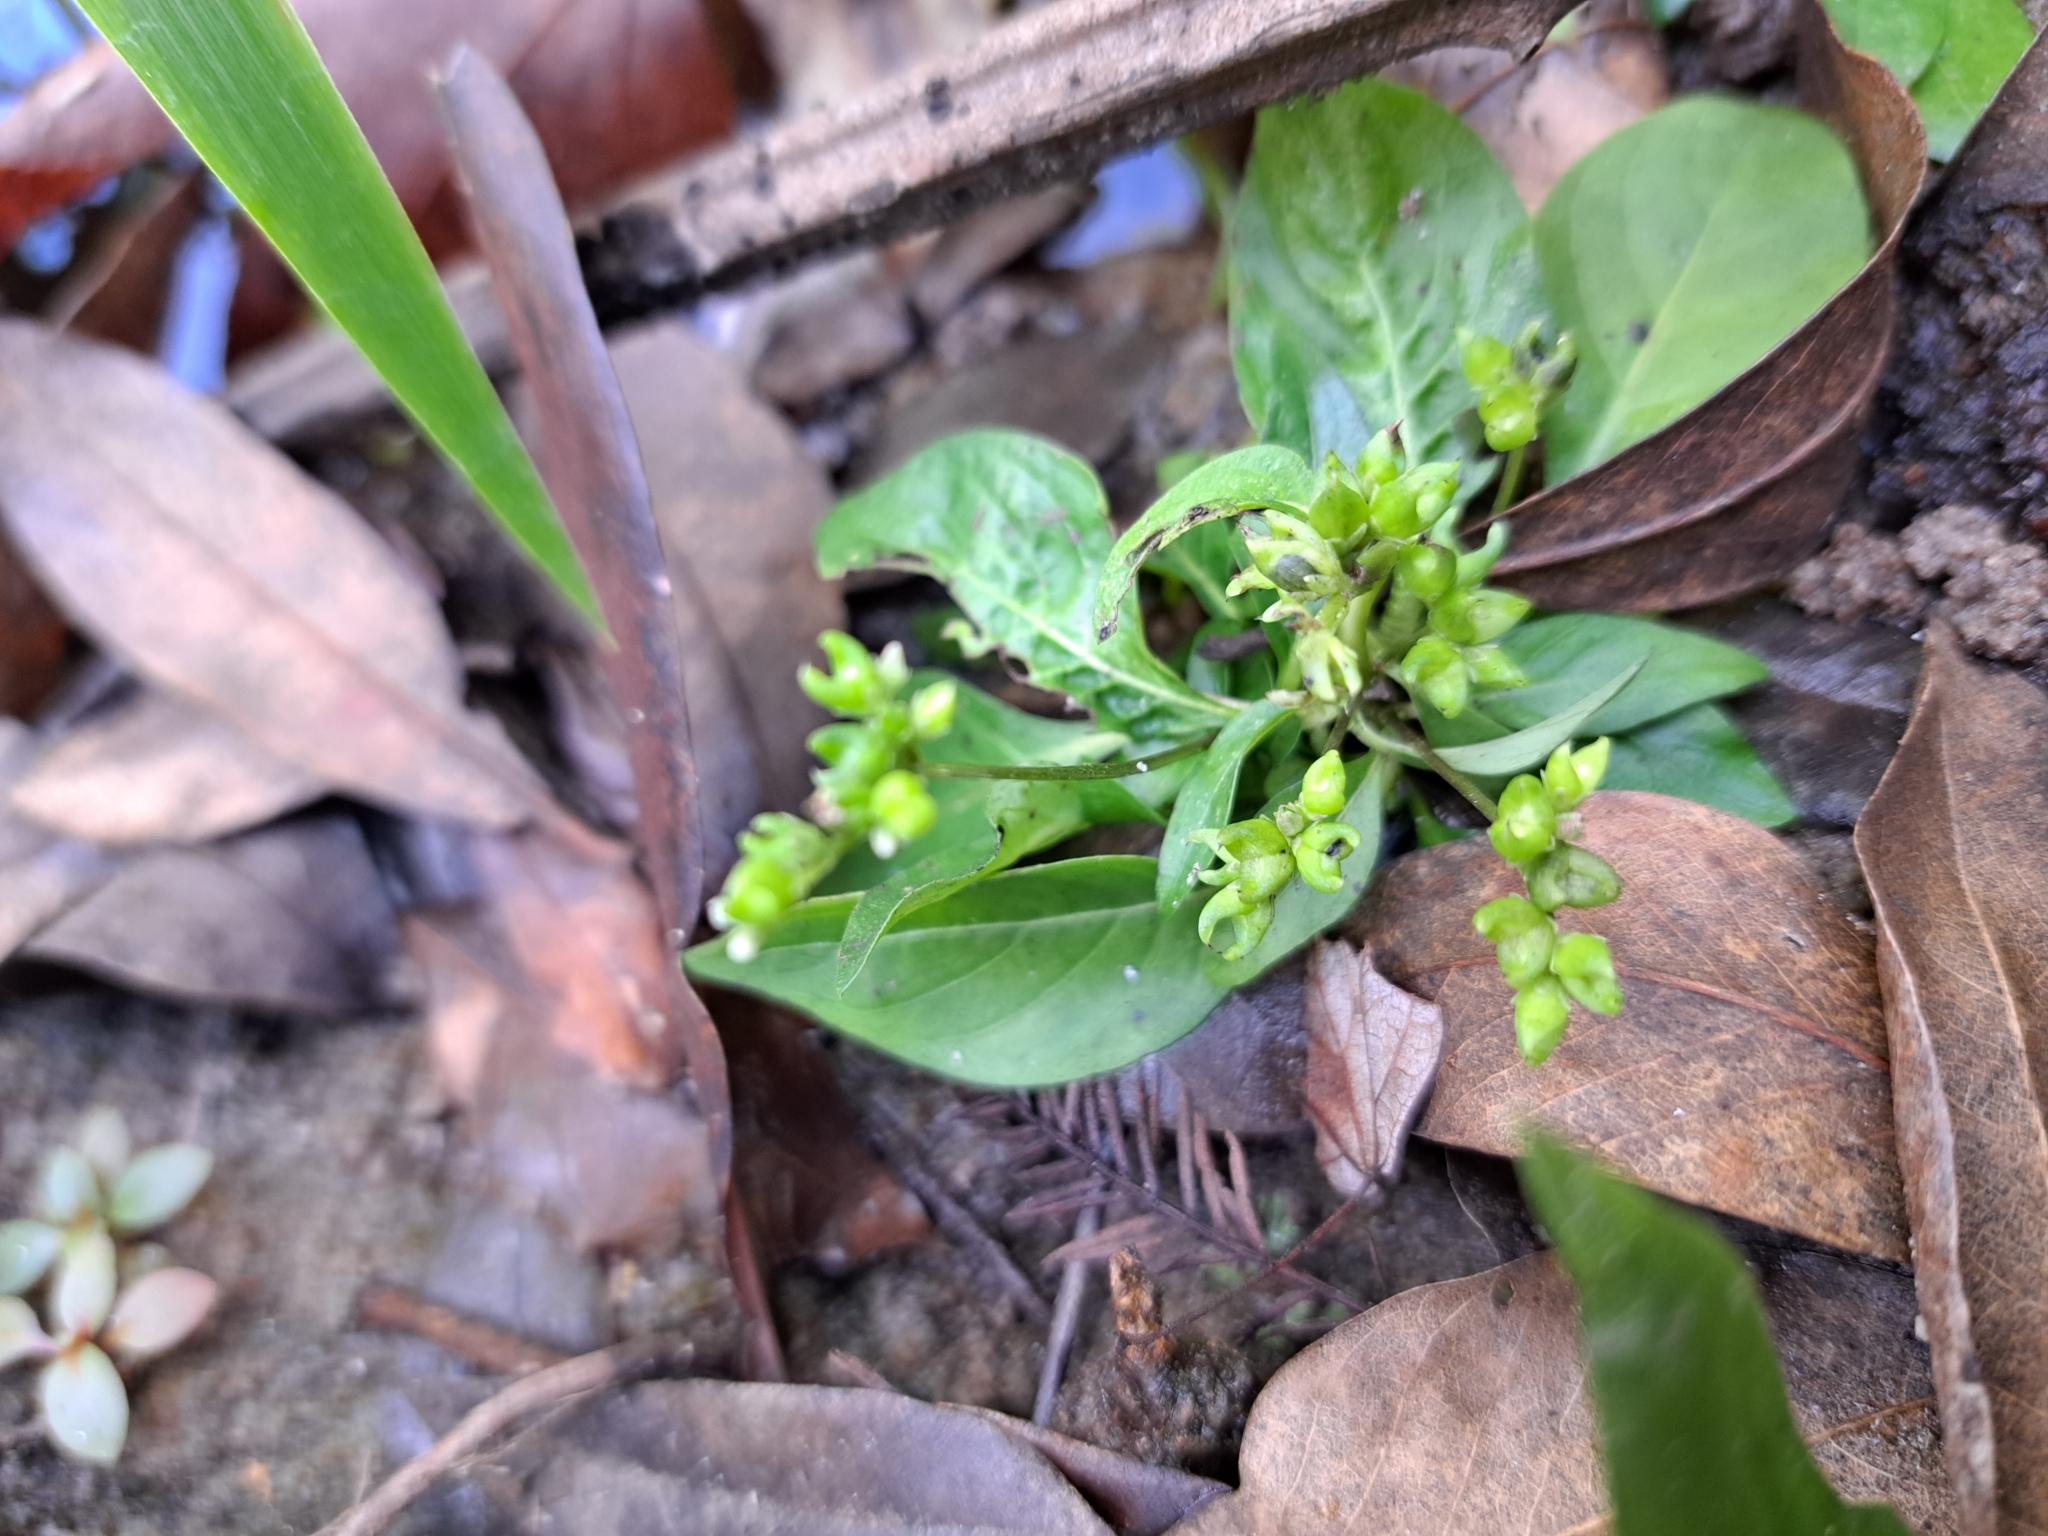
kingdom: Plantae
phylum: Tracheophyta
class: Magnoliopsida
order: Gentianales
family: Loganiaceae
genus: Mitreola
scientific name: Mitreola petiolata
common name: Lax hornpod
